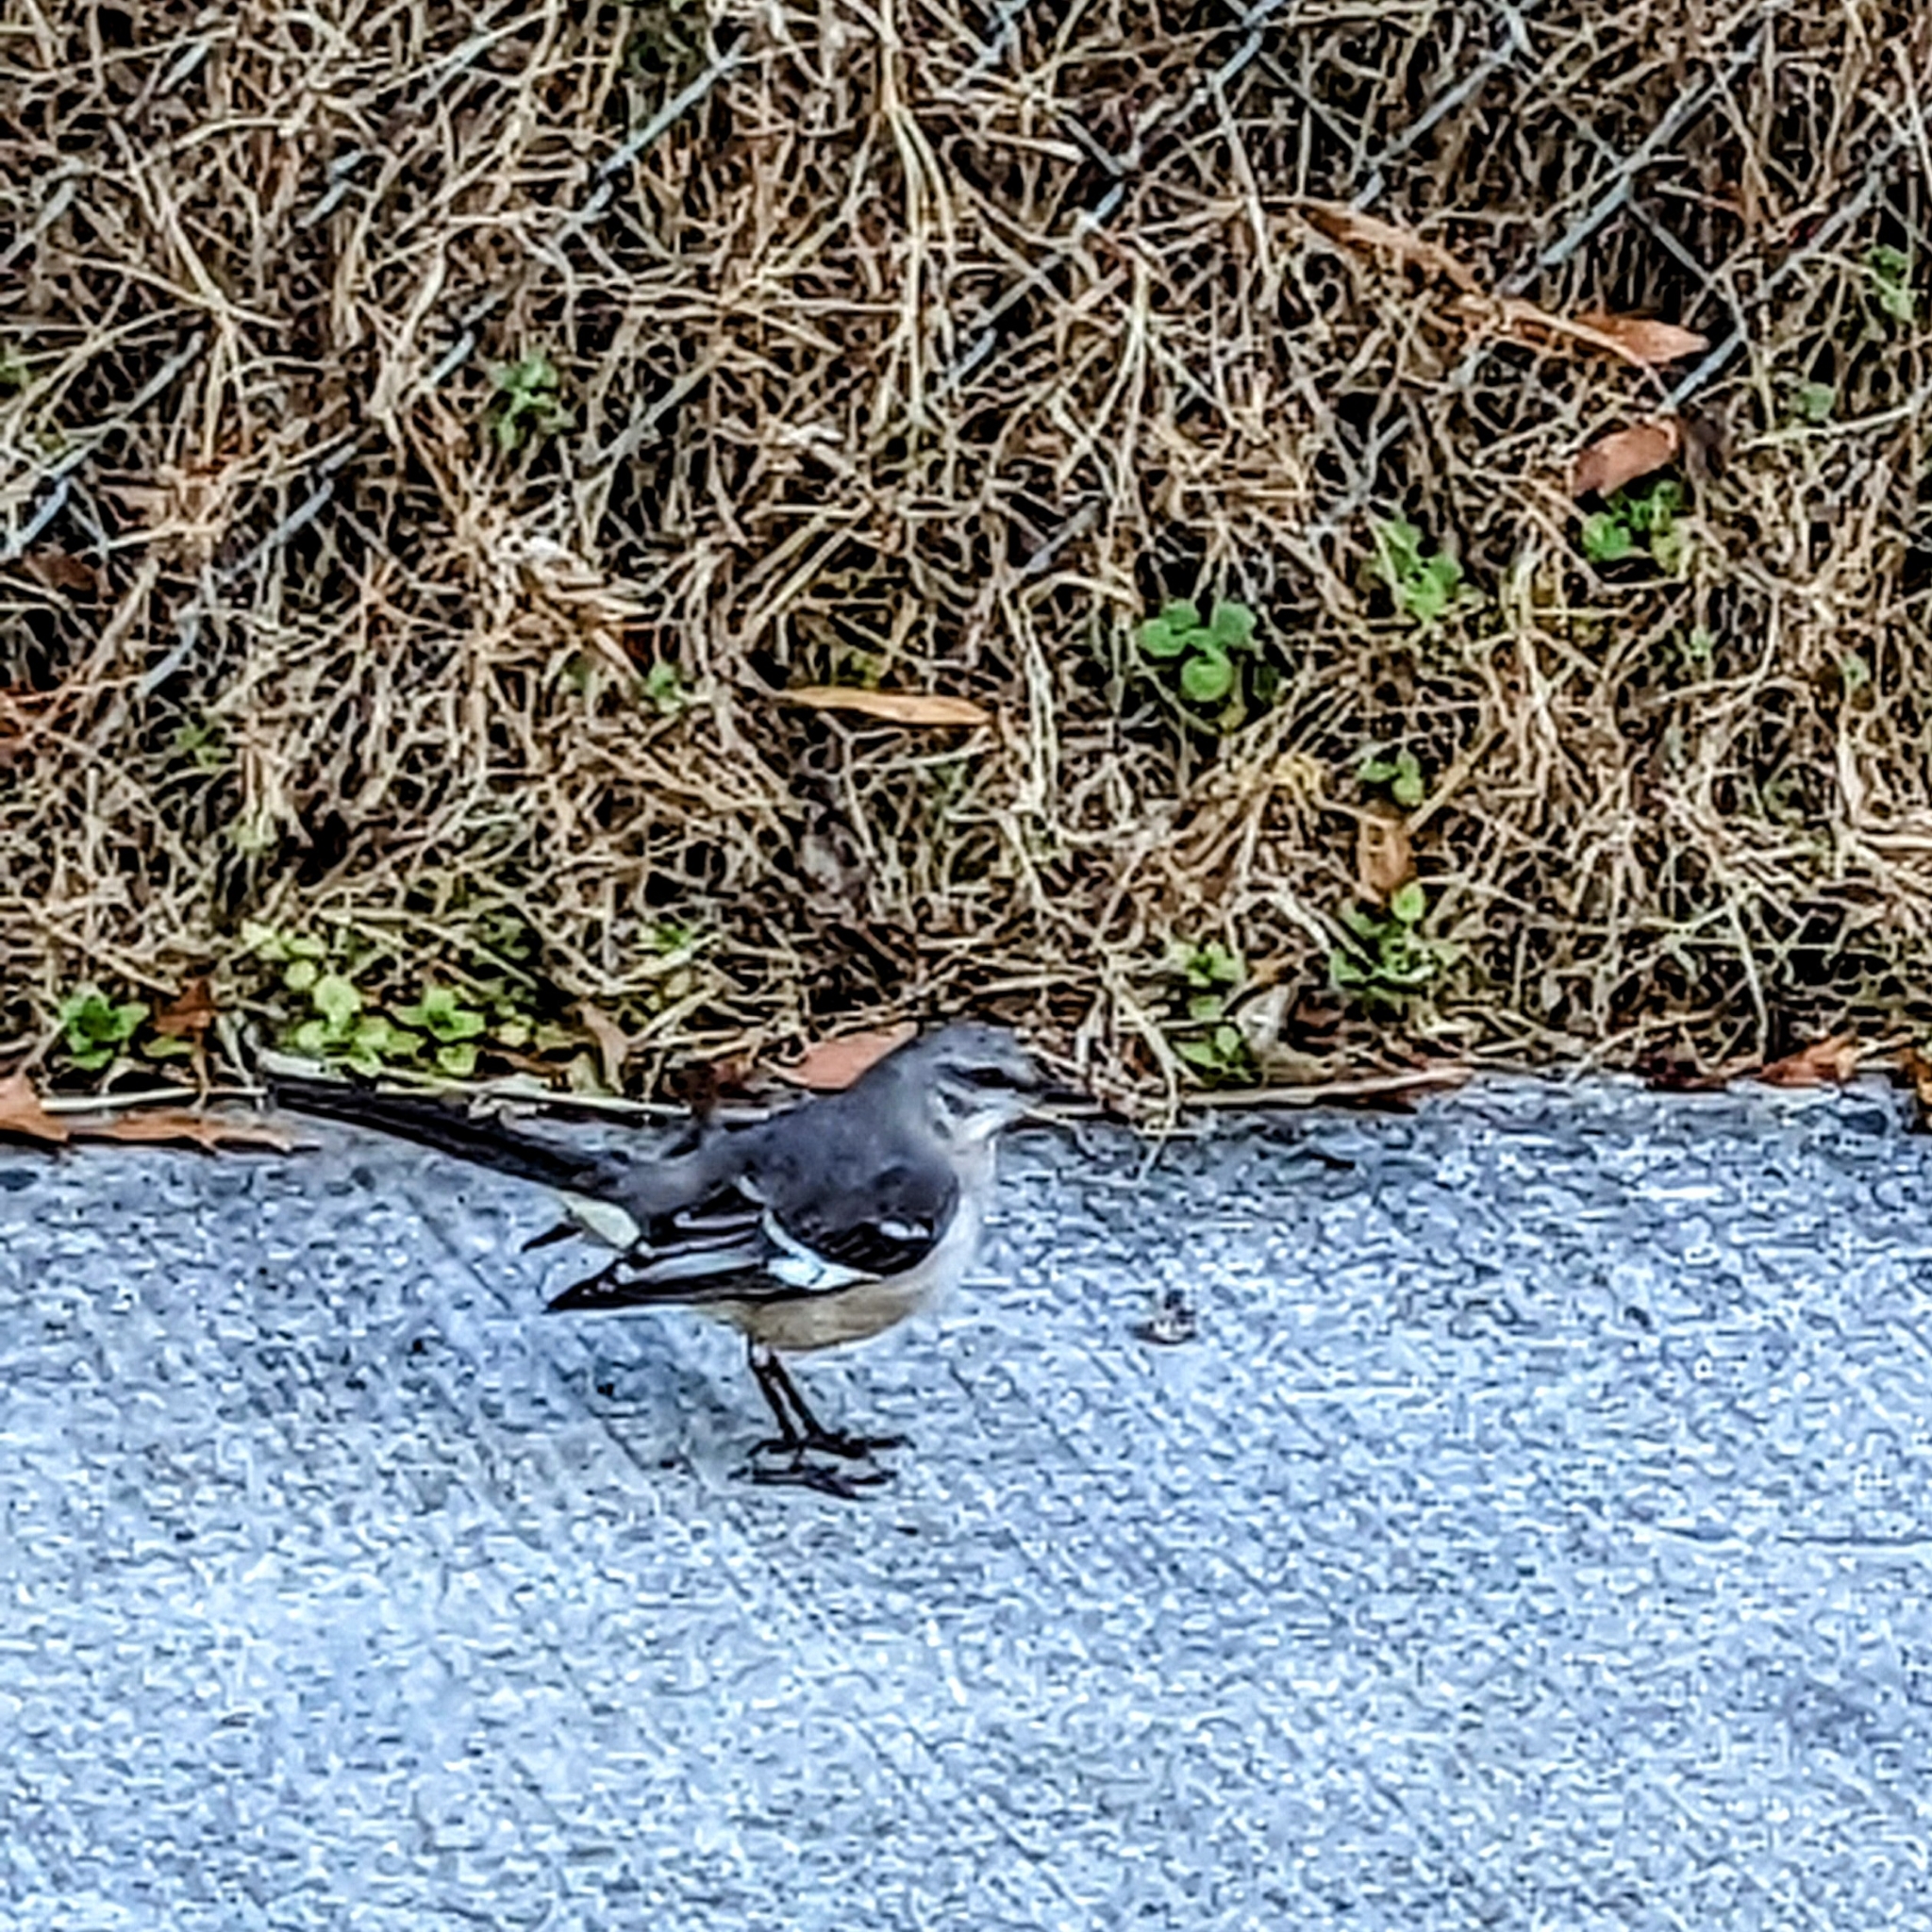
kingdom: Animalia
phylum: Chordata
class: Aves
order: Passeriformes
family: Mimidae
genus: Mimus
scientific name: Mimus polyglottos
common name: Northern mockingbird
